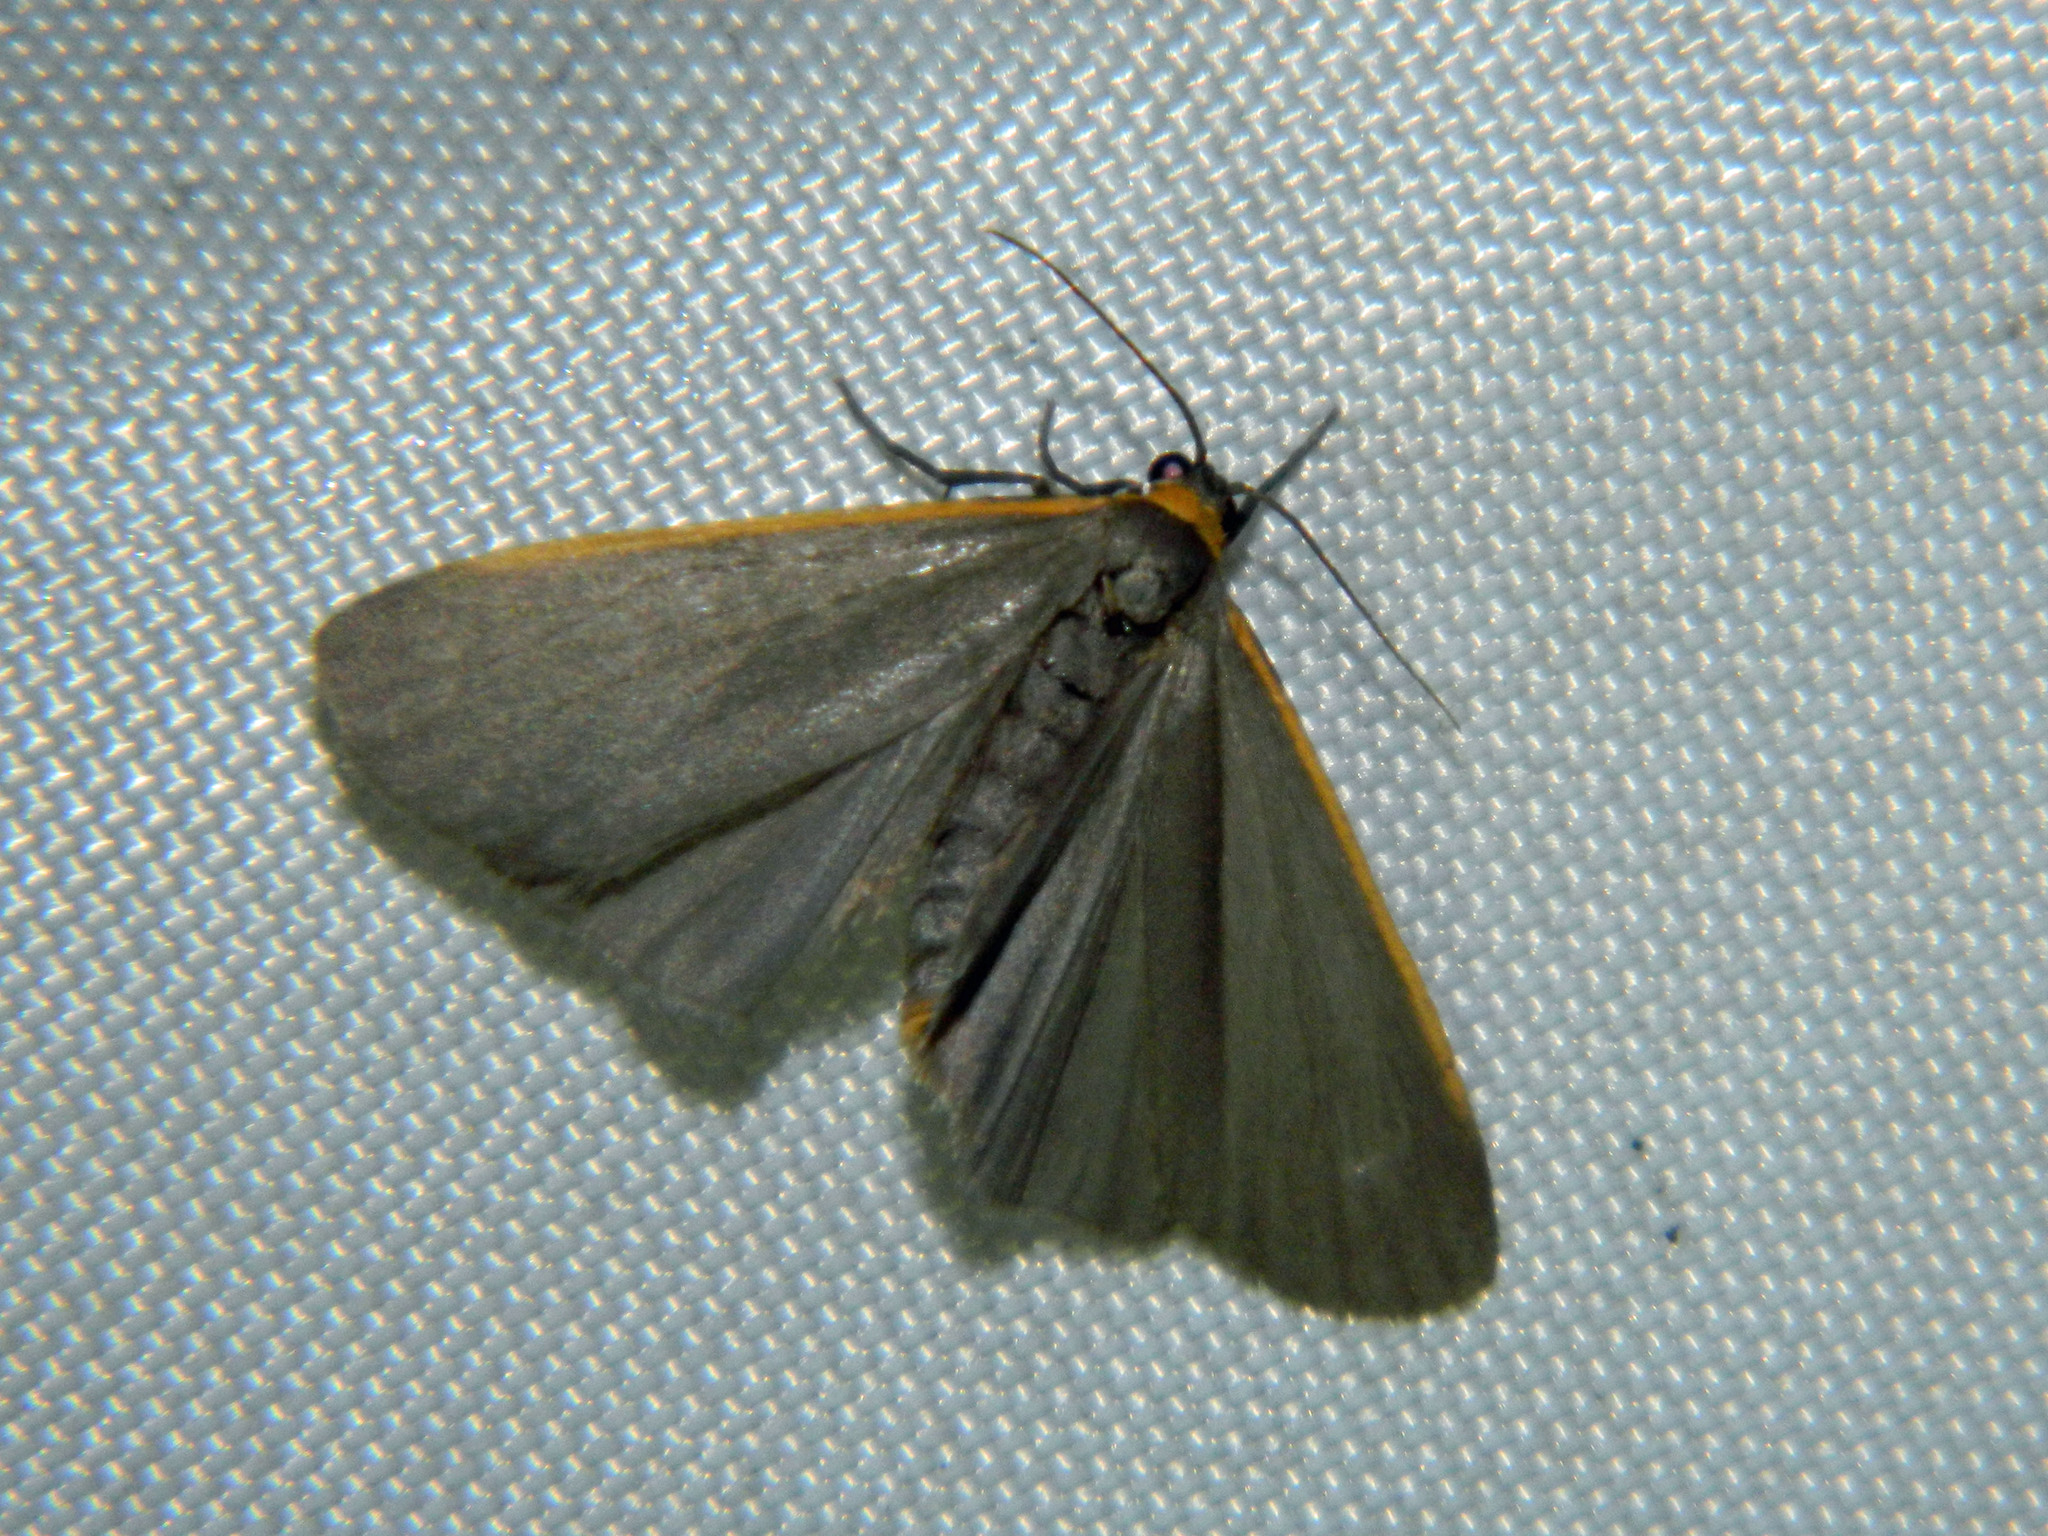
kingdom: Animalia
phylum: Arthropoda
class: Insecta
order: Lepidoptera
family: Erebidae
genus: Manulea
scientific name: Manulea bicolor
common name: Bicolored moth
